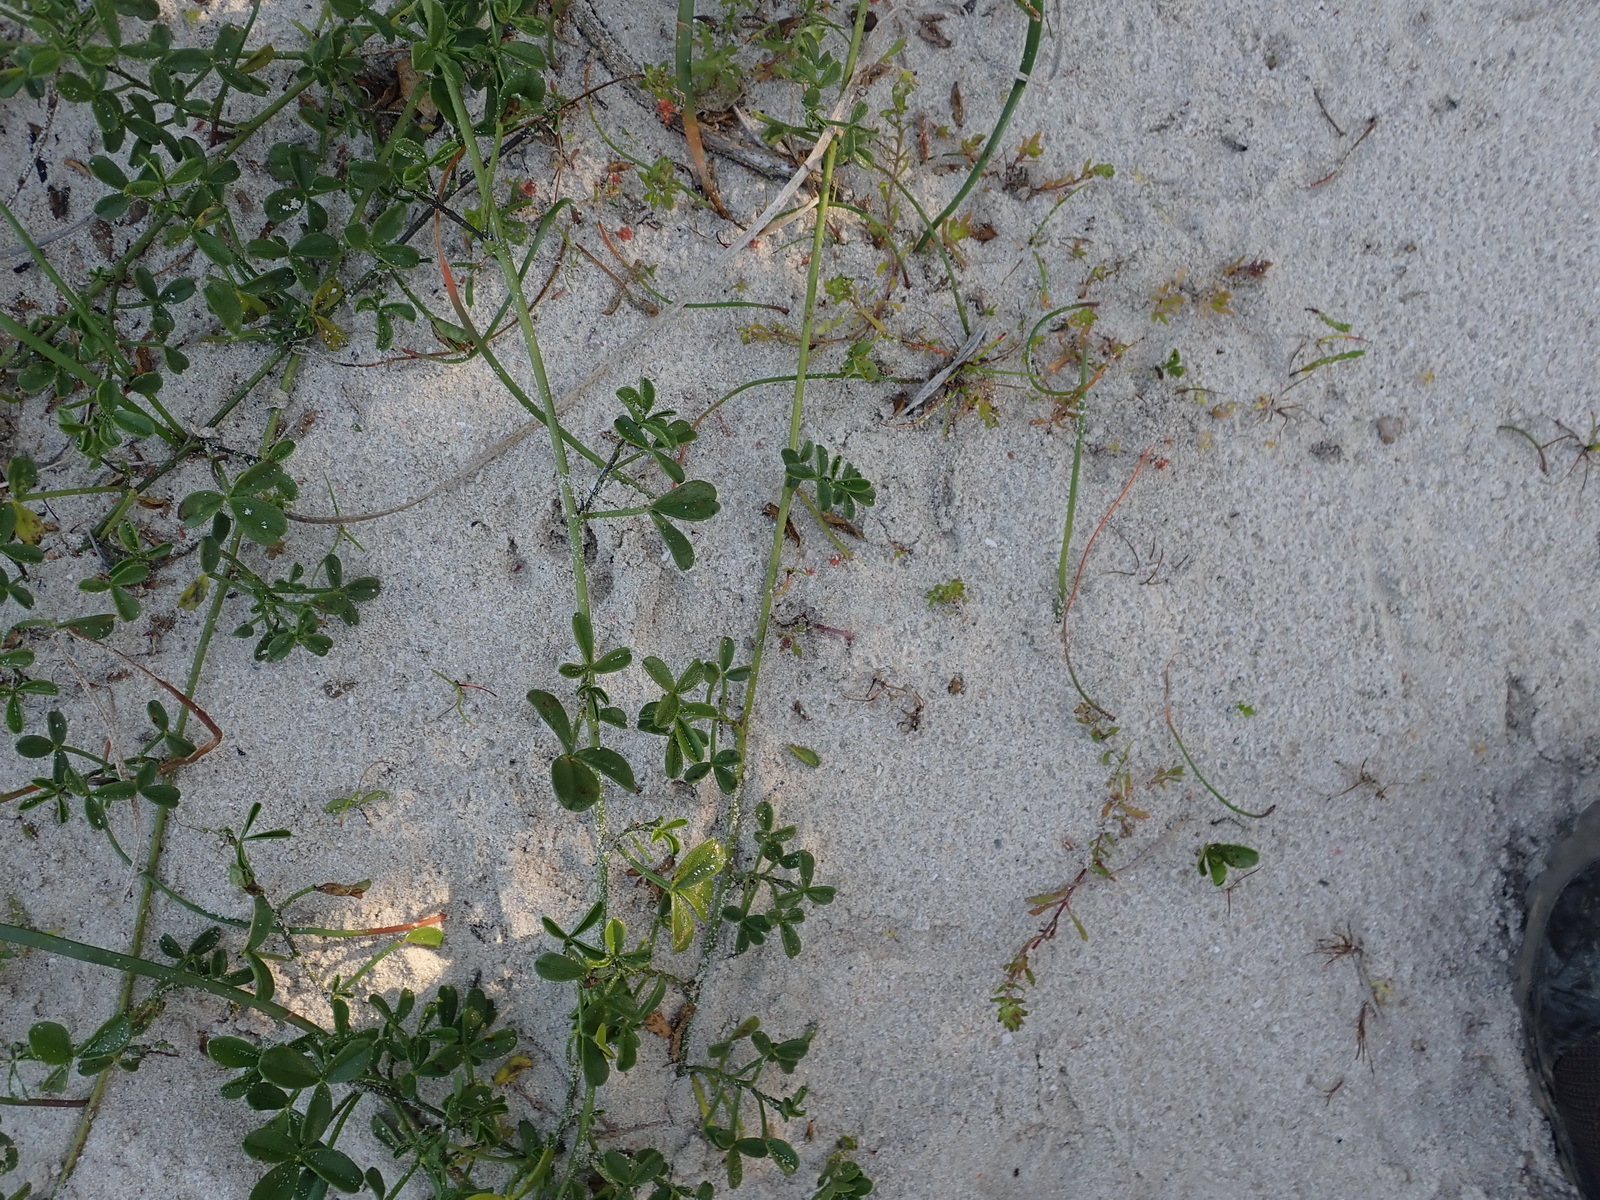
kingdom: Plantae
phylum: Tracheophyta
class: Magnoliopsida
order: Fabales
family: Fabaceae
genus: Psoralea
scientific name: Psoralea repens
